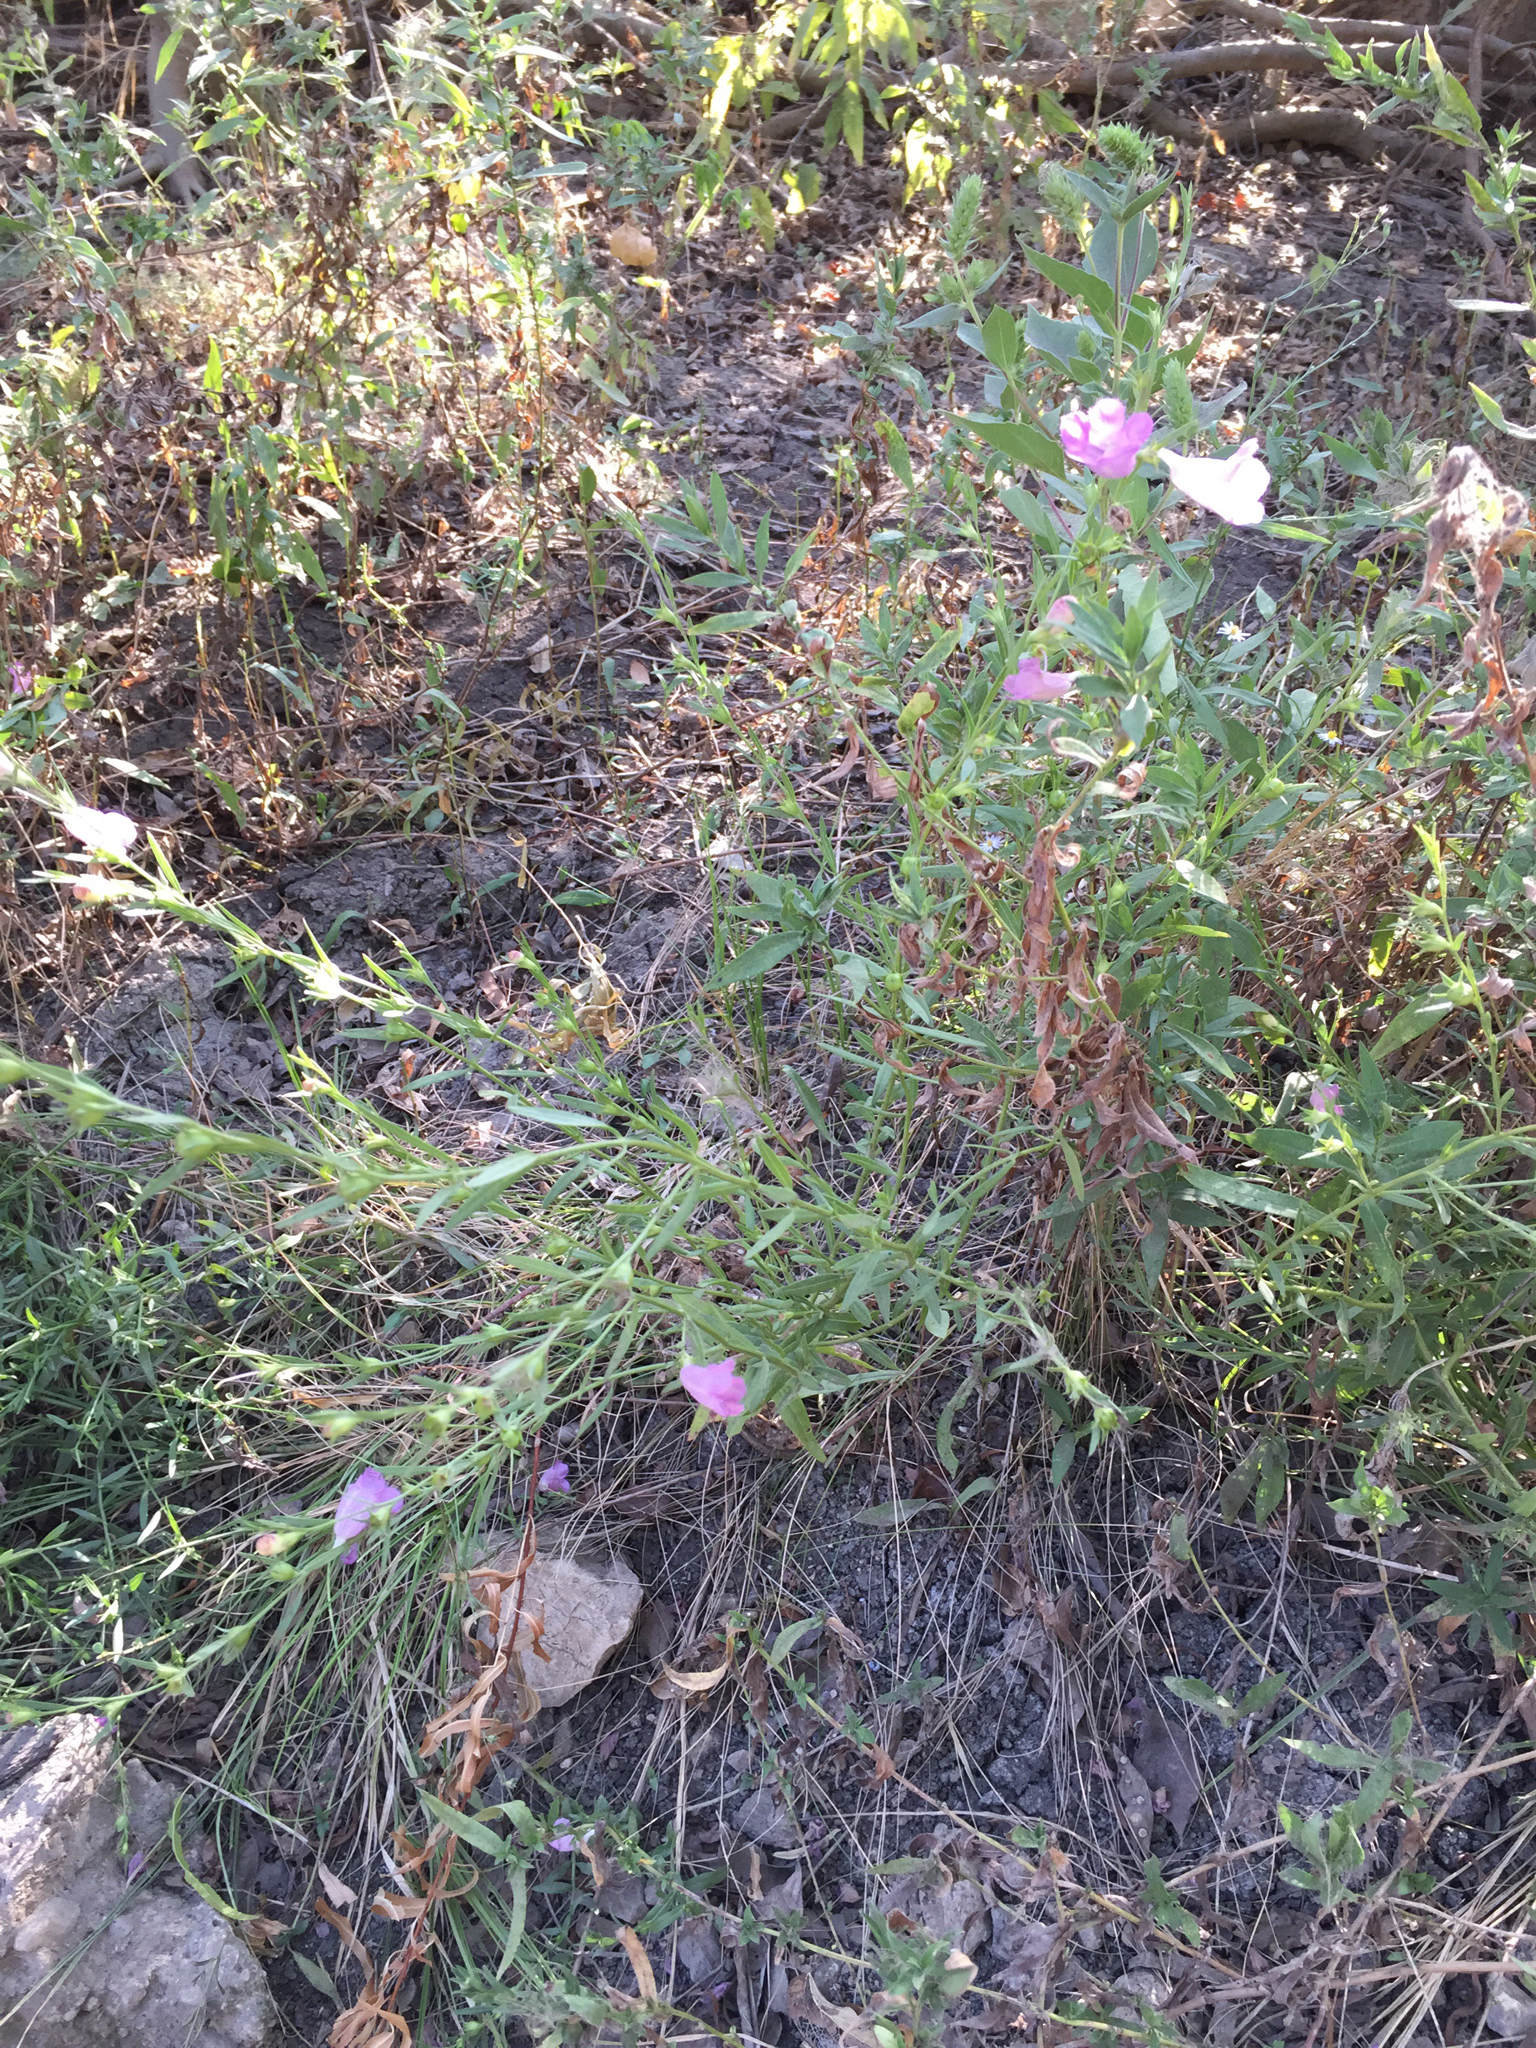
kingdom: Plantae
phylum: Tracheophyta
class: Magnoliopsida
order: Lamiales
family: Orobanchaceae
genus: Agalinis
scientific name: Agalinis heterophylla
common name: Prairie agalinis
